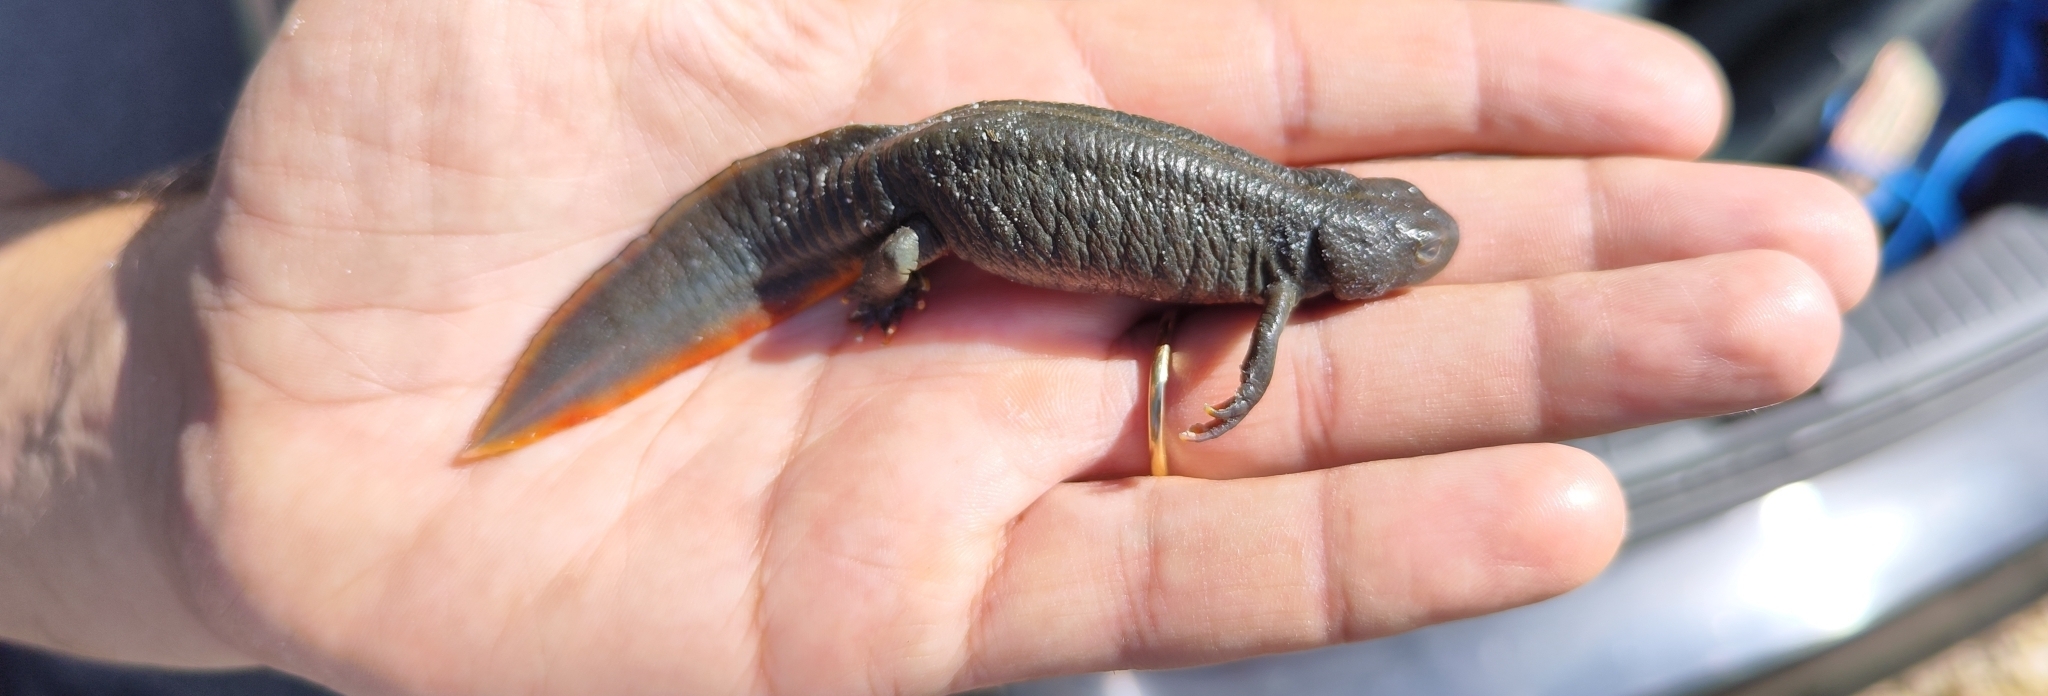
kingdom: Animalia
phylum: Chordata
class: Amphibia
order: Caudata
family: Salamandridae
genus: Triturus
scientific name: Triturus carnifex
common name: Italian crested newt
